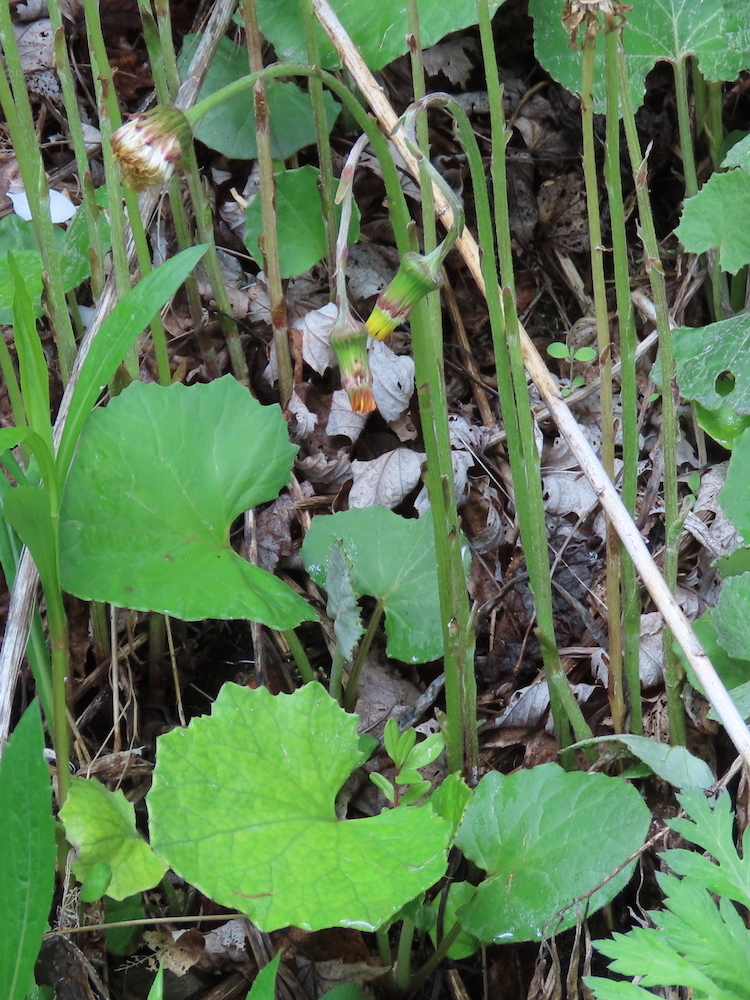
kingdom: Plantae
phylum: Tracheophyta
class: Magnoliopsida
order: Asterales
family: Asteraceae
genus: Tussilago
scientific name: Tussilago farfara
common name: Coltsfoot
